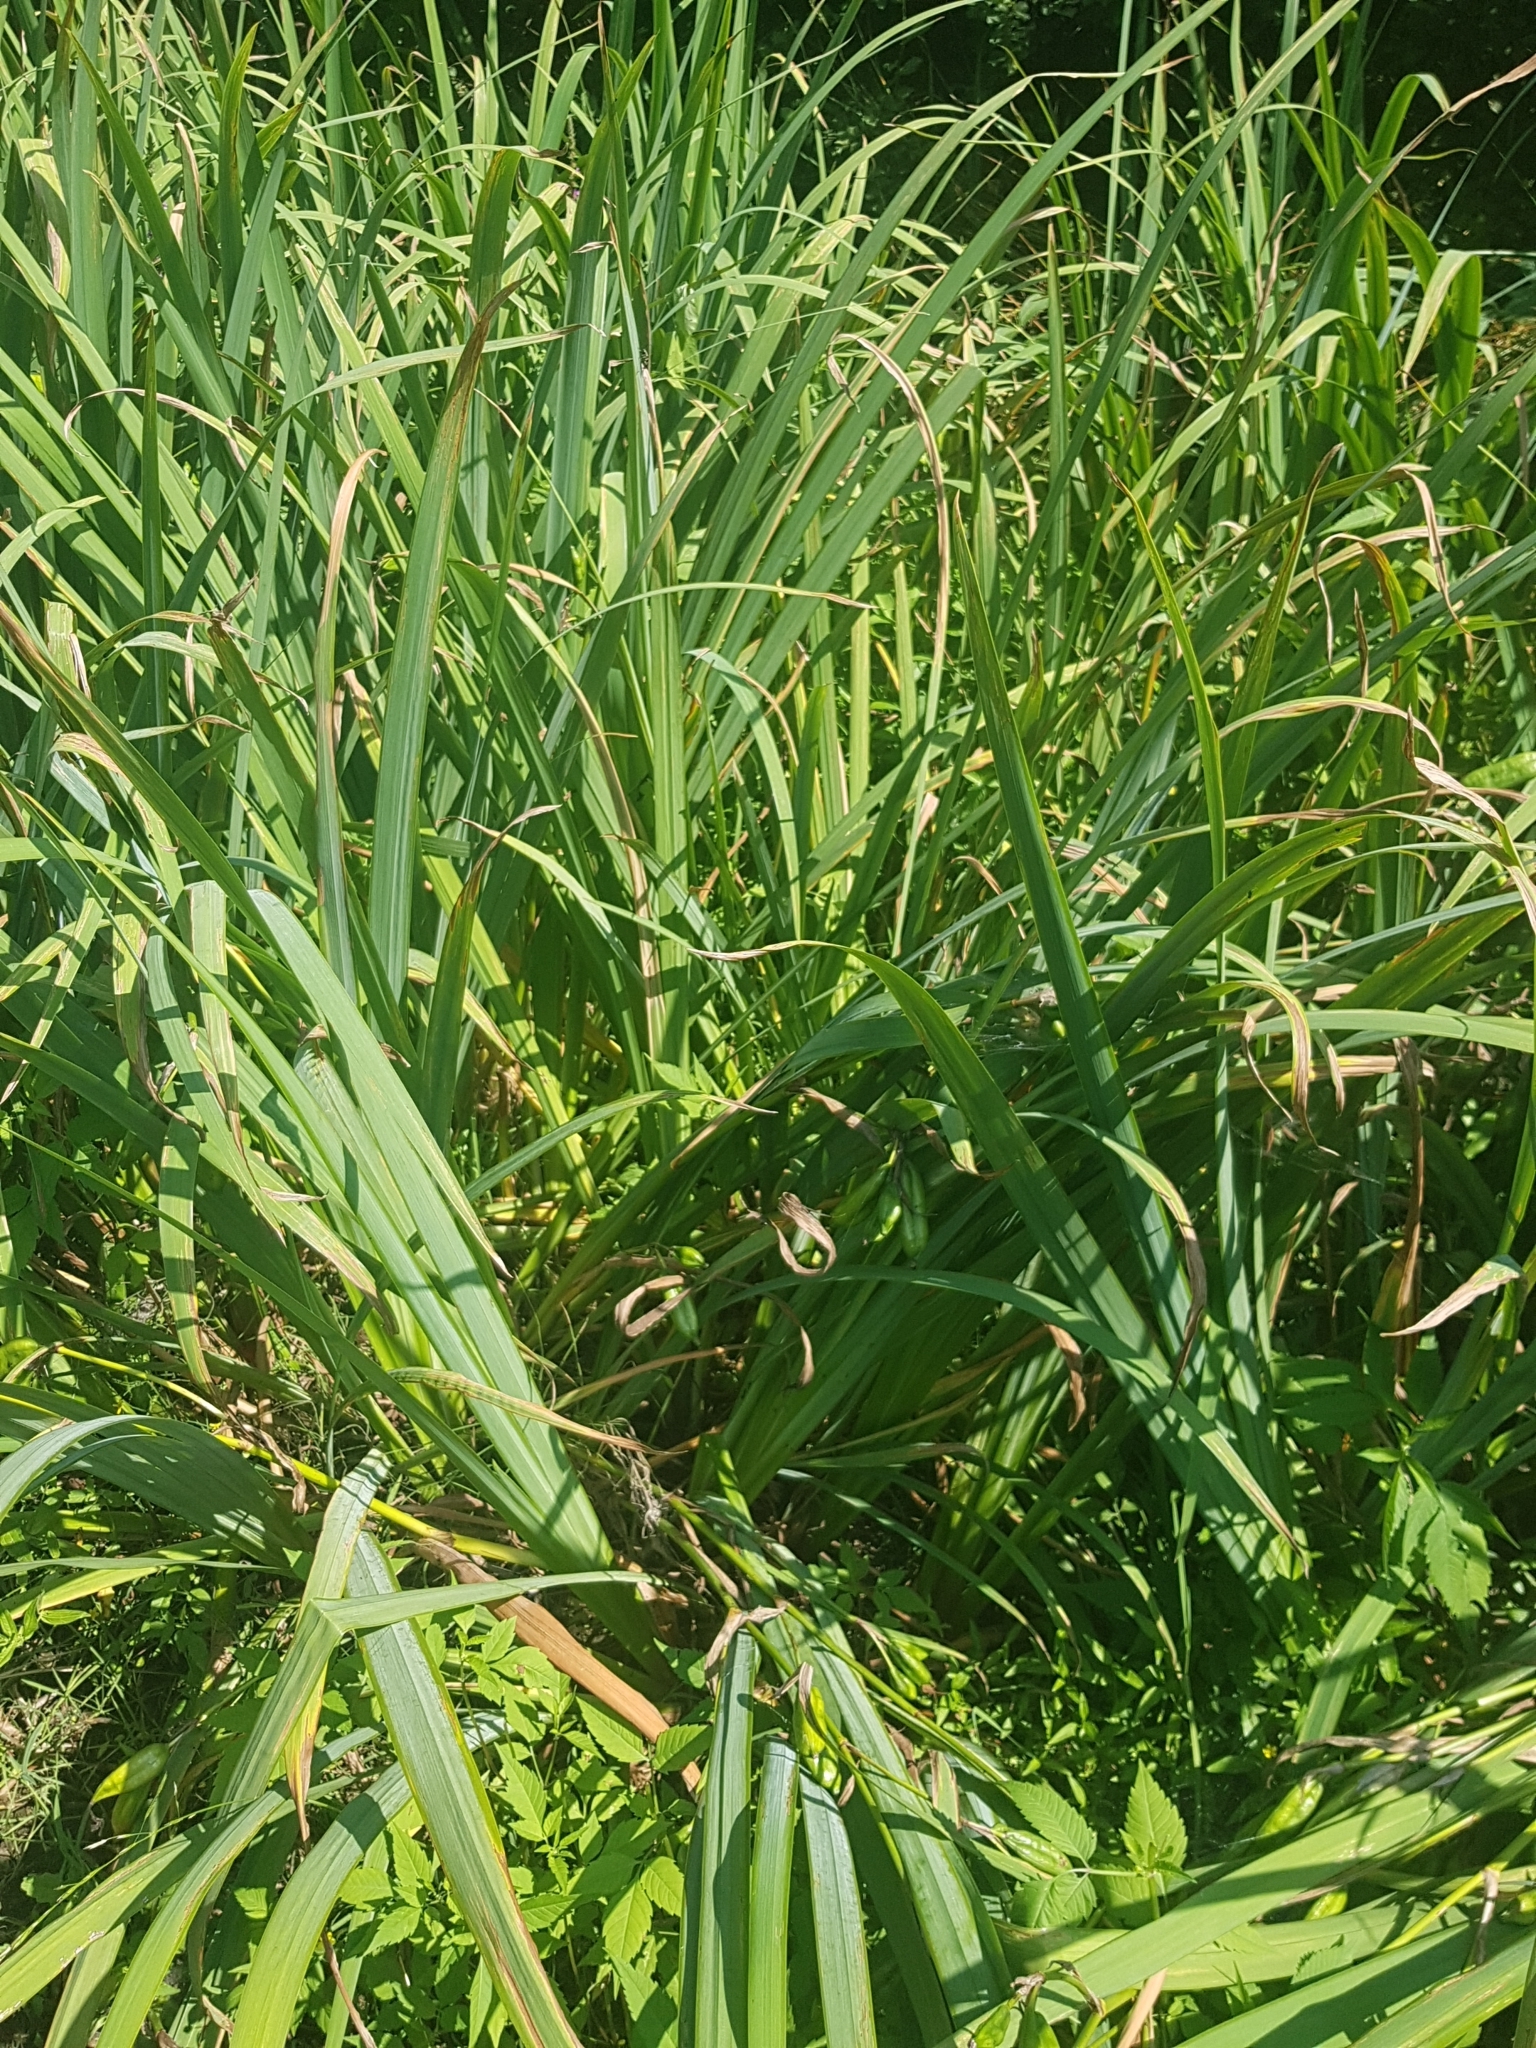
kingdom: Plantae
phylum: Tracheophyta
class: Liliopsida
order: Asparagales
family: Iridaceae
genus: Iris
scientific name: Iris pseudacorus
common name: Yellow flag
